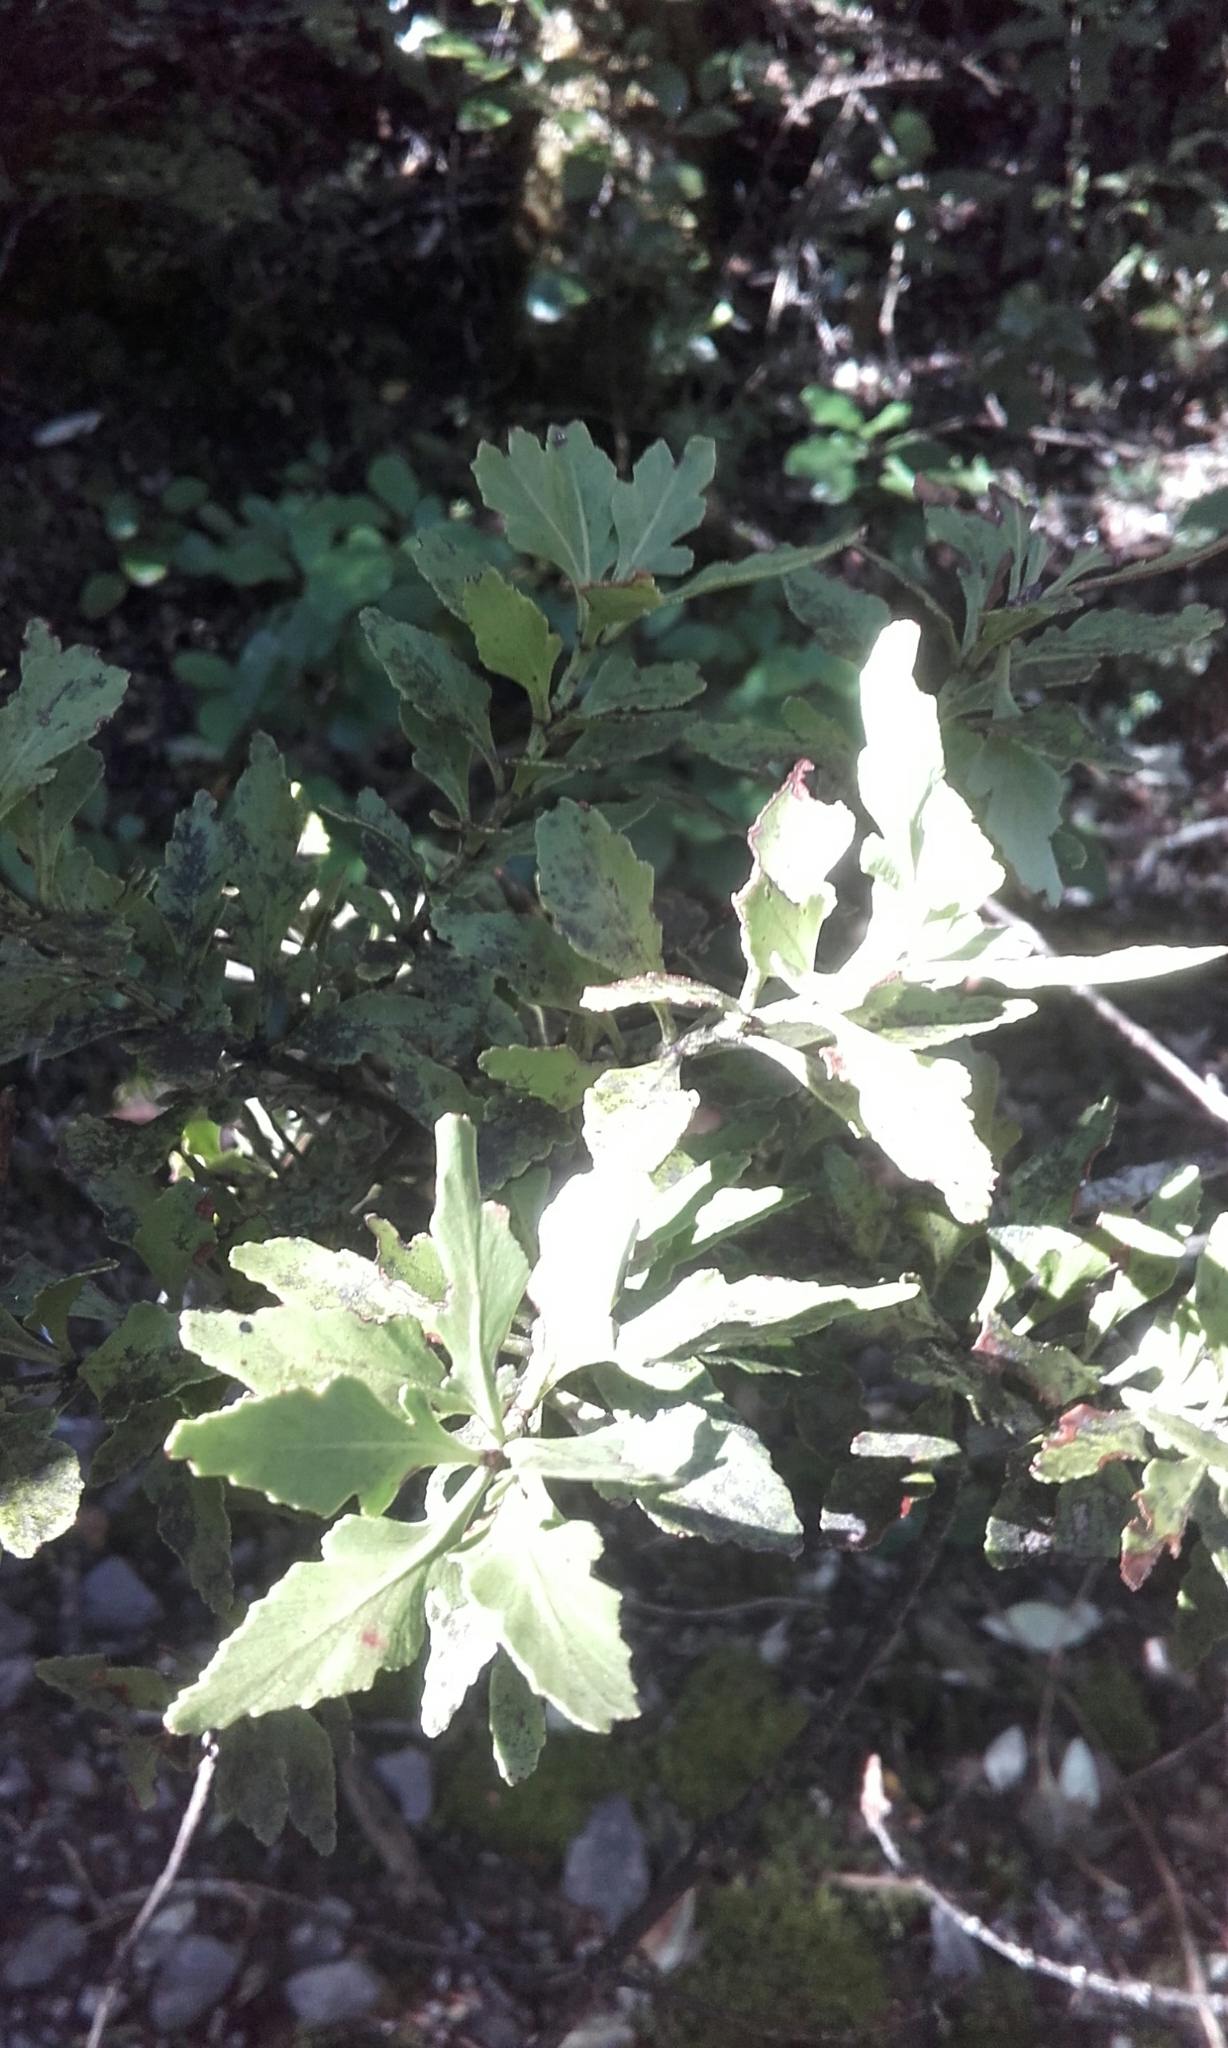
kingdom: Plantae
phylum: Tracheophyta
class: Pinopsida
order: Pinales
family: Phyllocladaceae
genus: Phyllocladus
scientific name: Phyllocladus trichomanoides
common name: Celery pine
